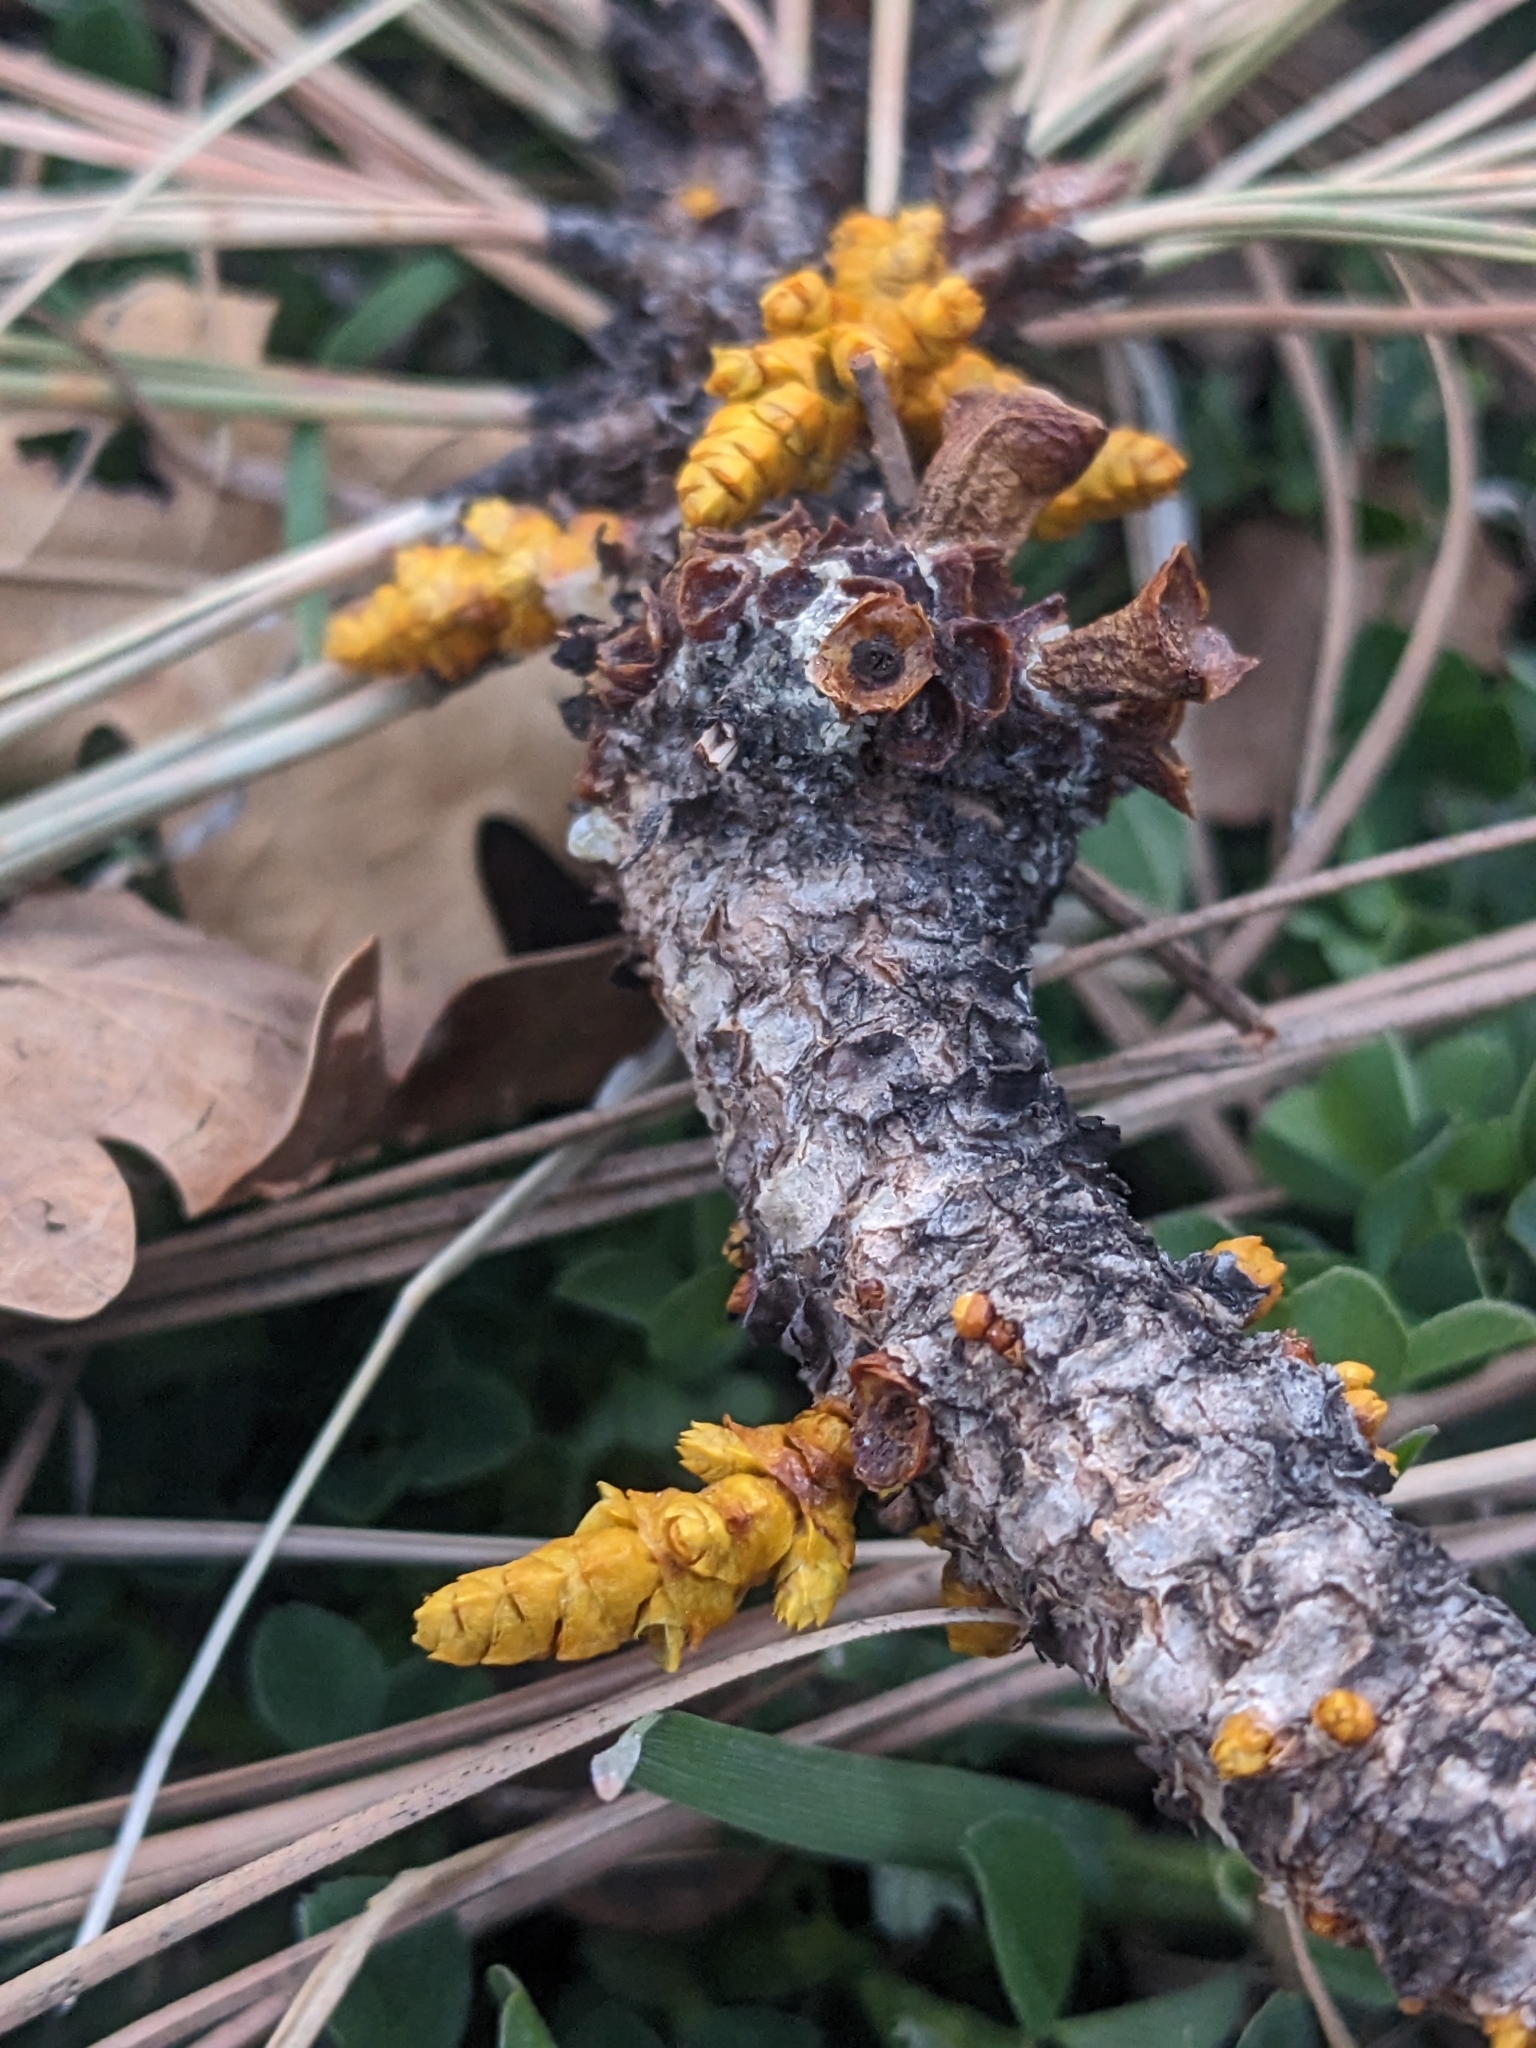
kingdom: Plantae
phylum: Tracheophyta
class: Magnoliopsida
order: Santalales
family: Viscaceae
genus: Arceuthobium
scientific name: Arceuthobium vaginatum
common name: Southwestern dwarf-mistletoe
